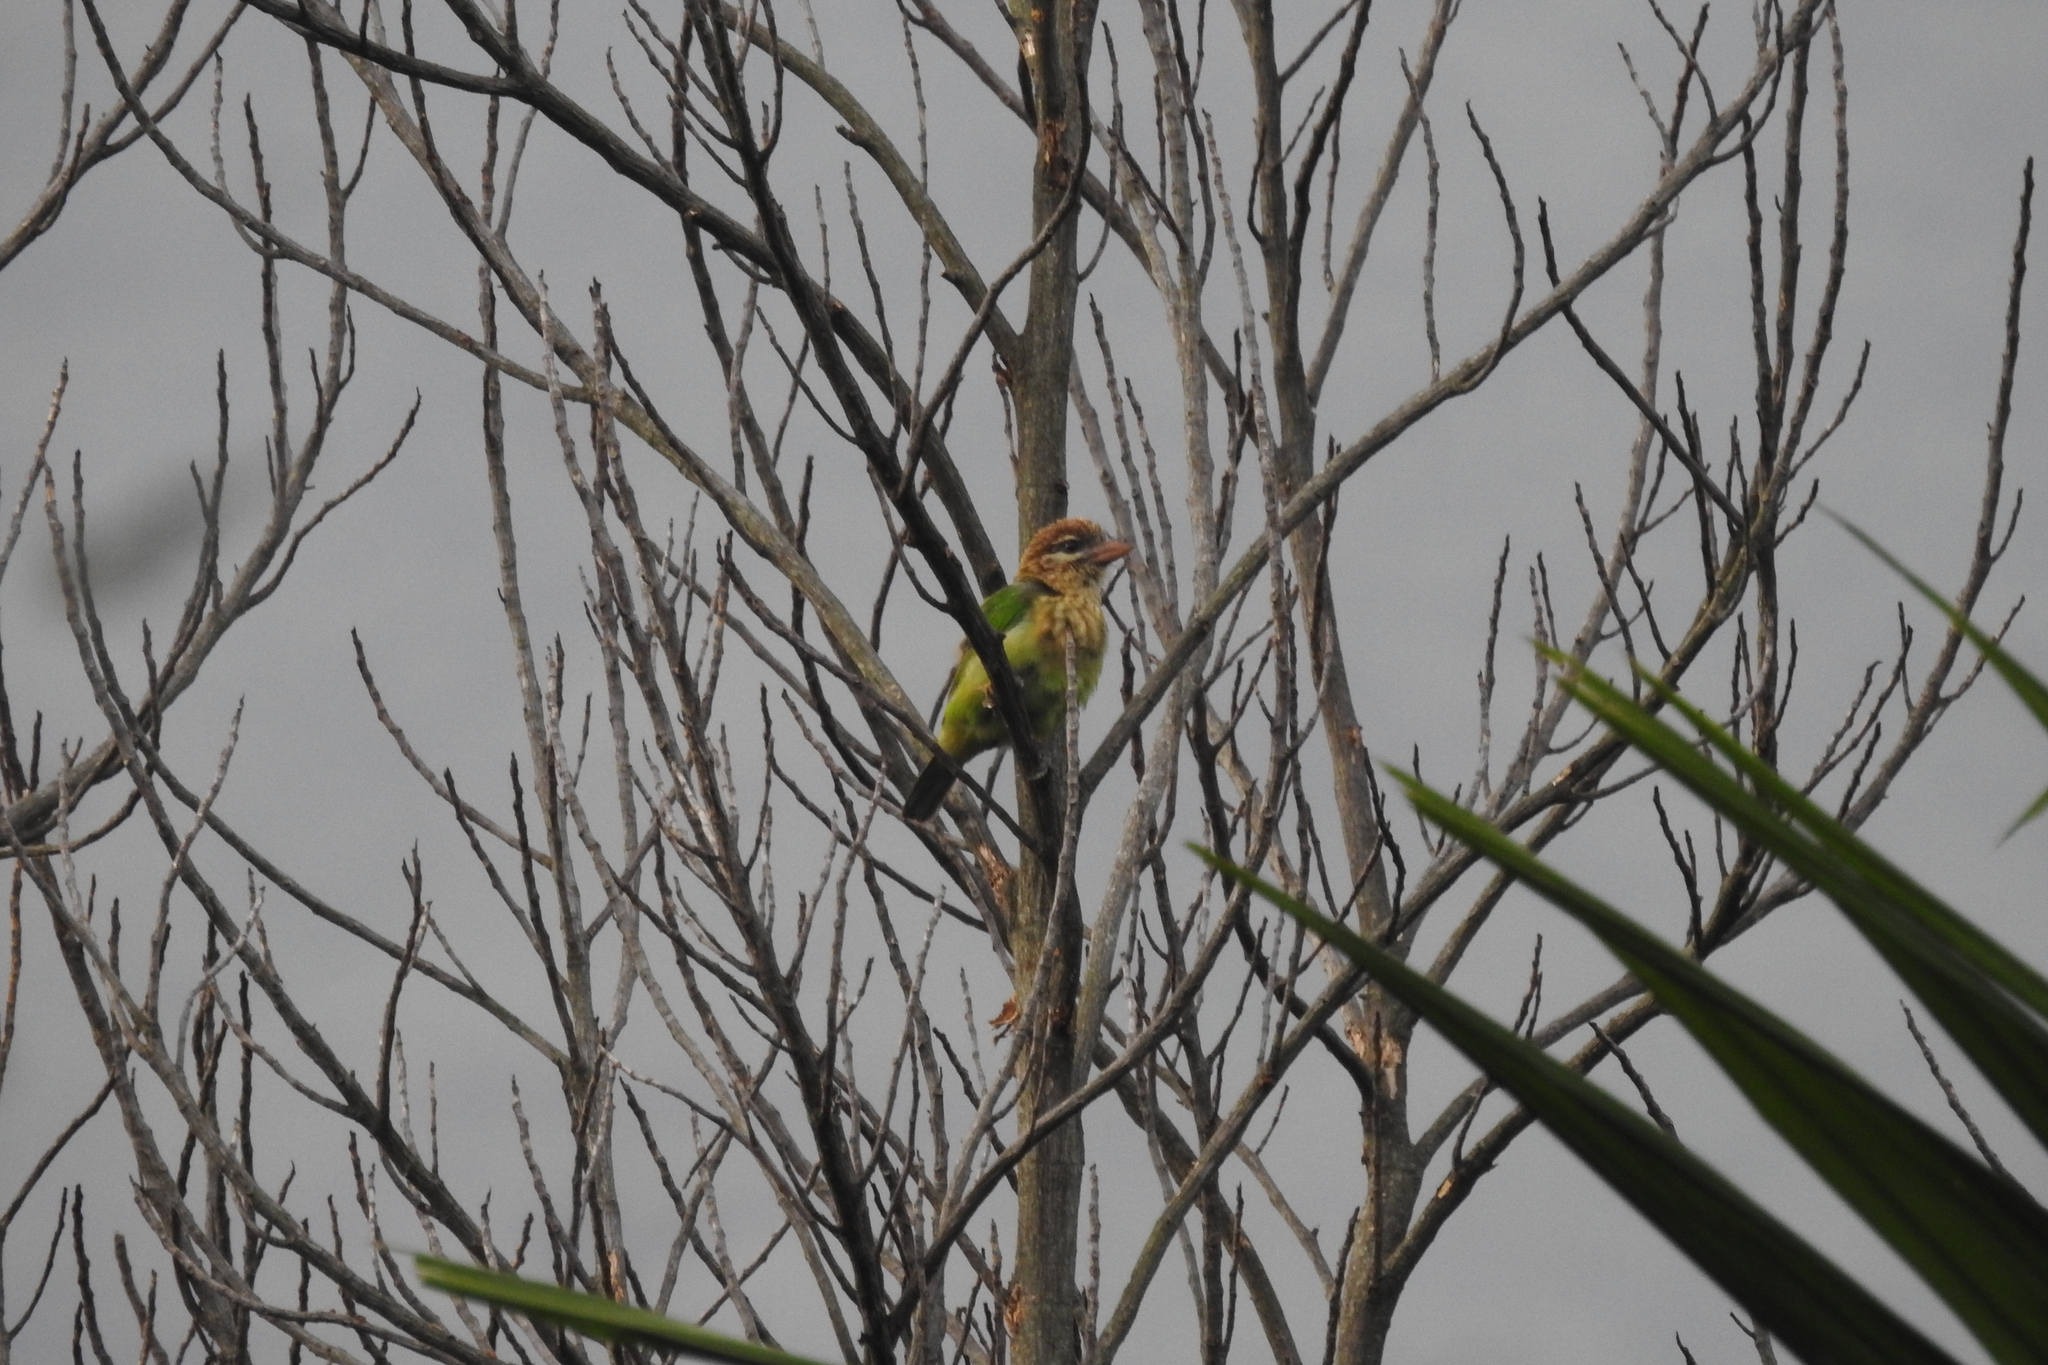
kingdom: Animalia
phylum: Chordata
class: Aves
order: Piciformes
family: Megalaimidae
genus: Psilopogon
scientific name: Psilopogon viridis
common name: White-cheeked barbet
